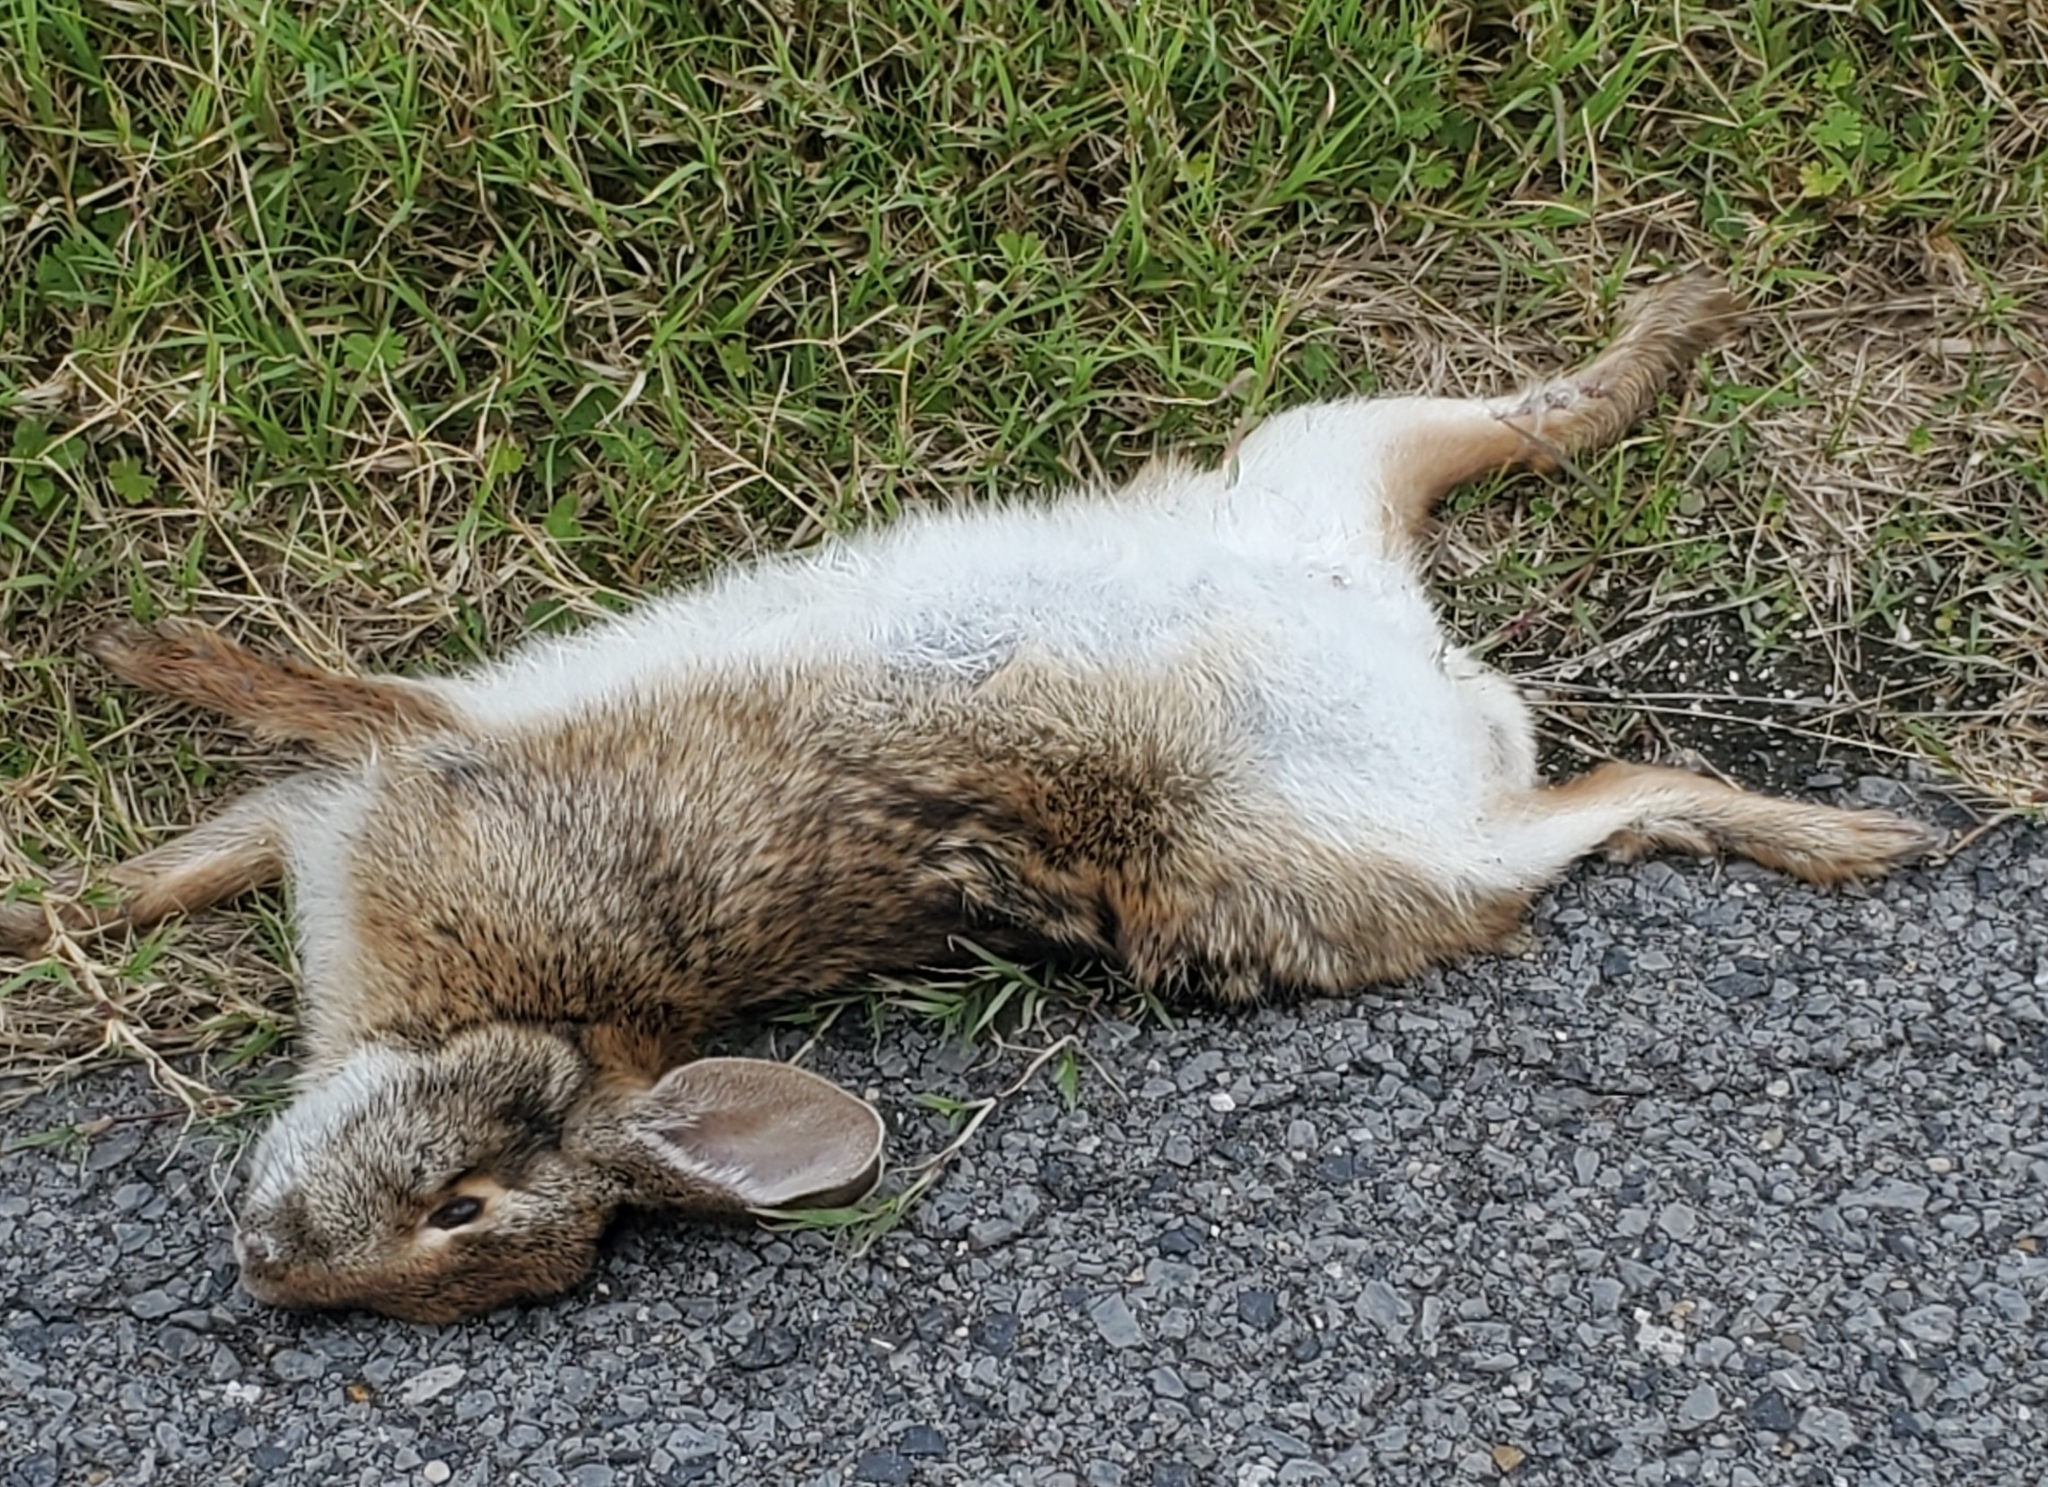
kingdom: Animalia
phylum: Chordata
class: Mammalia
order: Lagomorpha
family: Leporidae
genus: Sylvilagus
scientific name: Sylvilagus aquaticus
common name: Swamp rabbit
